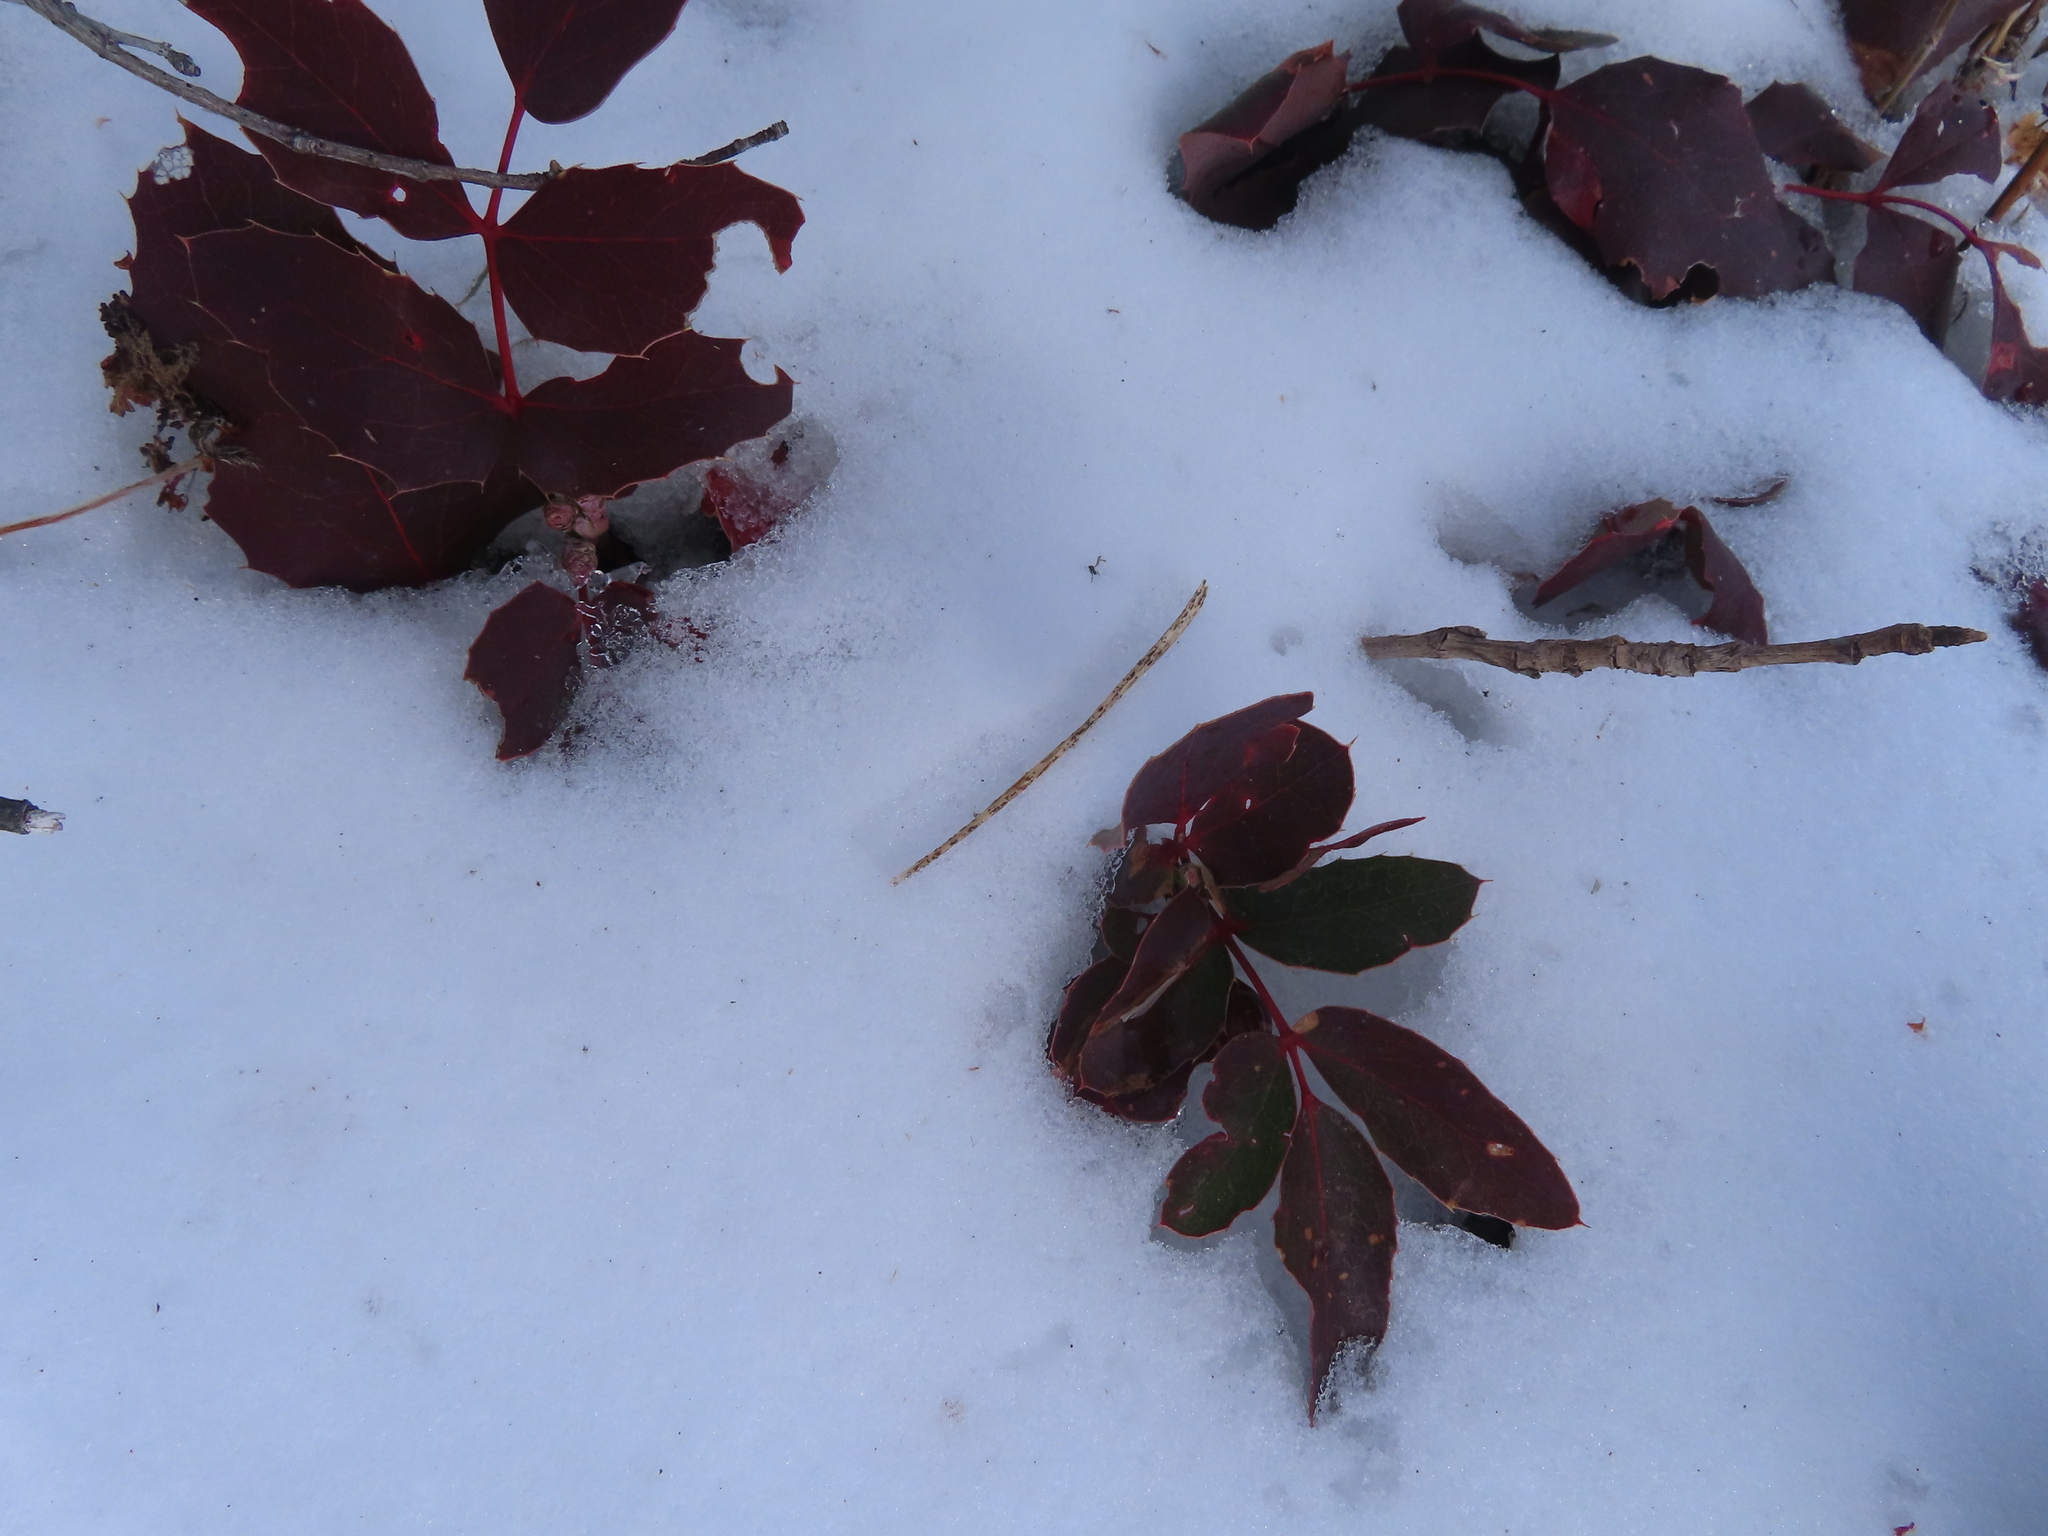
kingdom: Plantae
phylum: Tracheophyta
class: Magnoliopsida
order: Ranunculales
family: Berberidaceae
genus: Mahonia
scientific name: Mahonia repens
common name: Creeping oregon-grape
